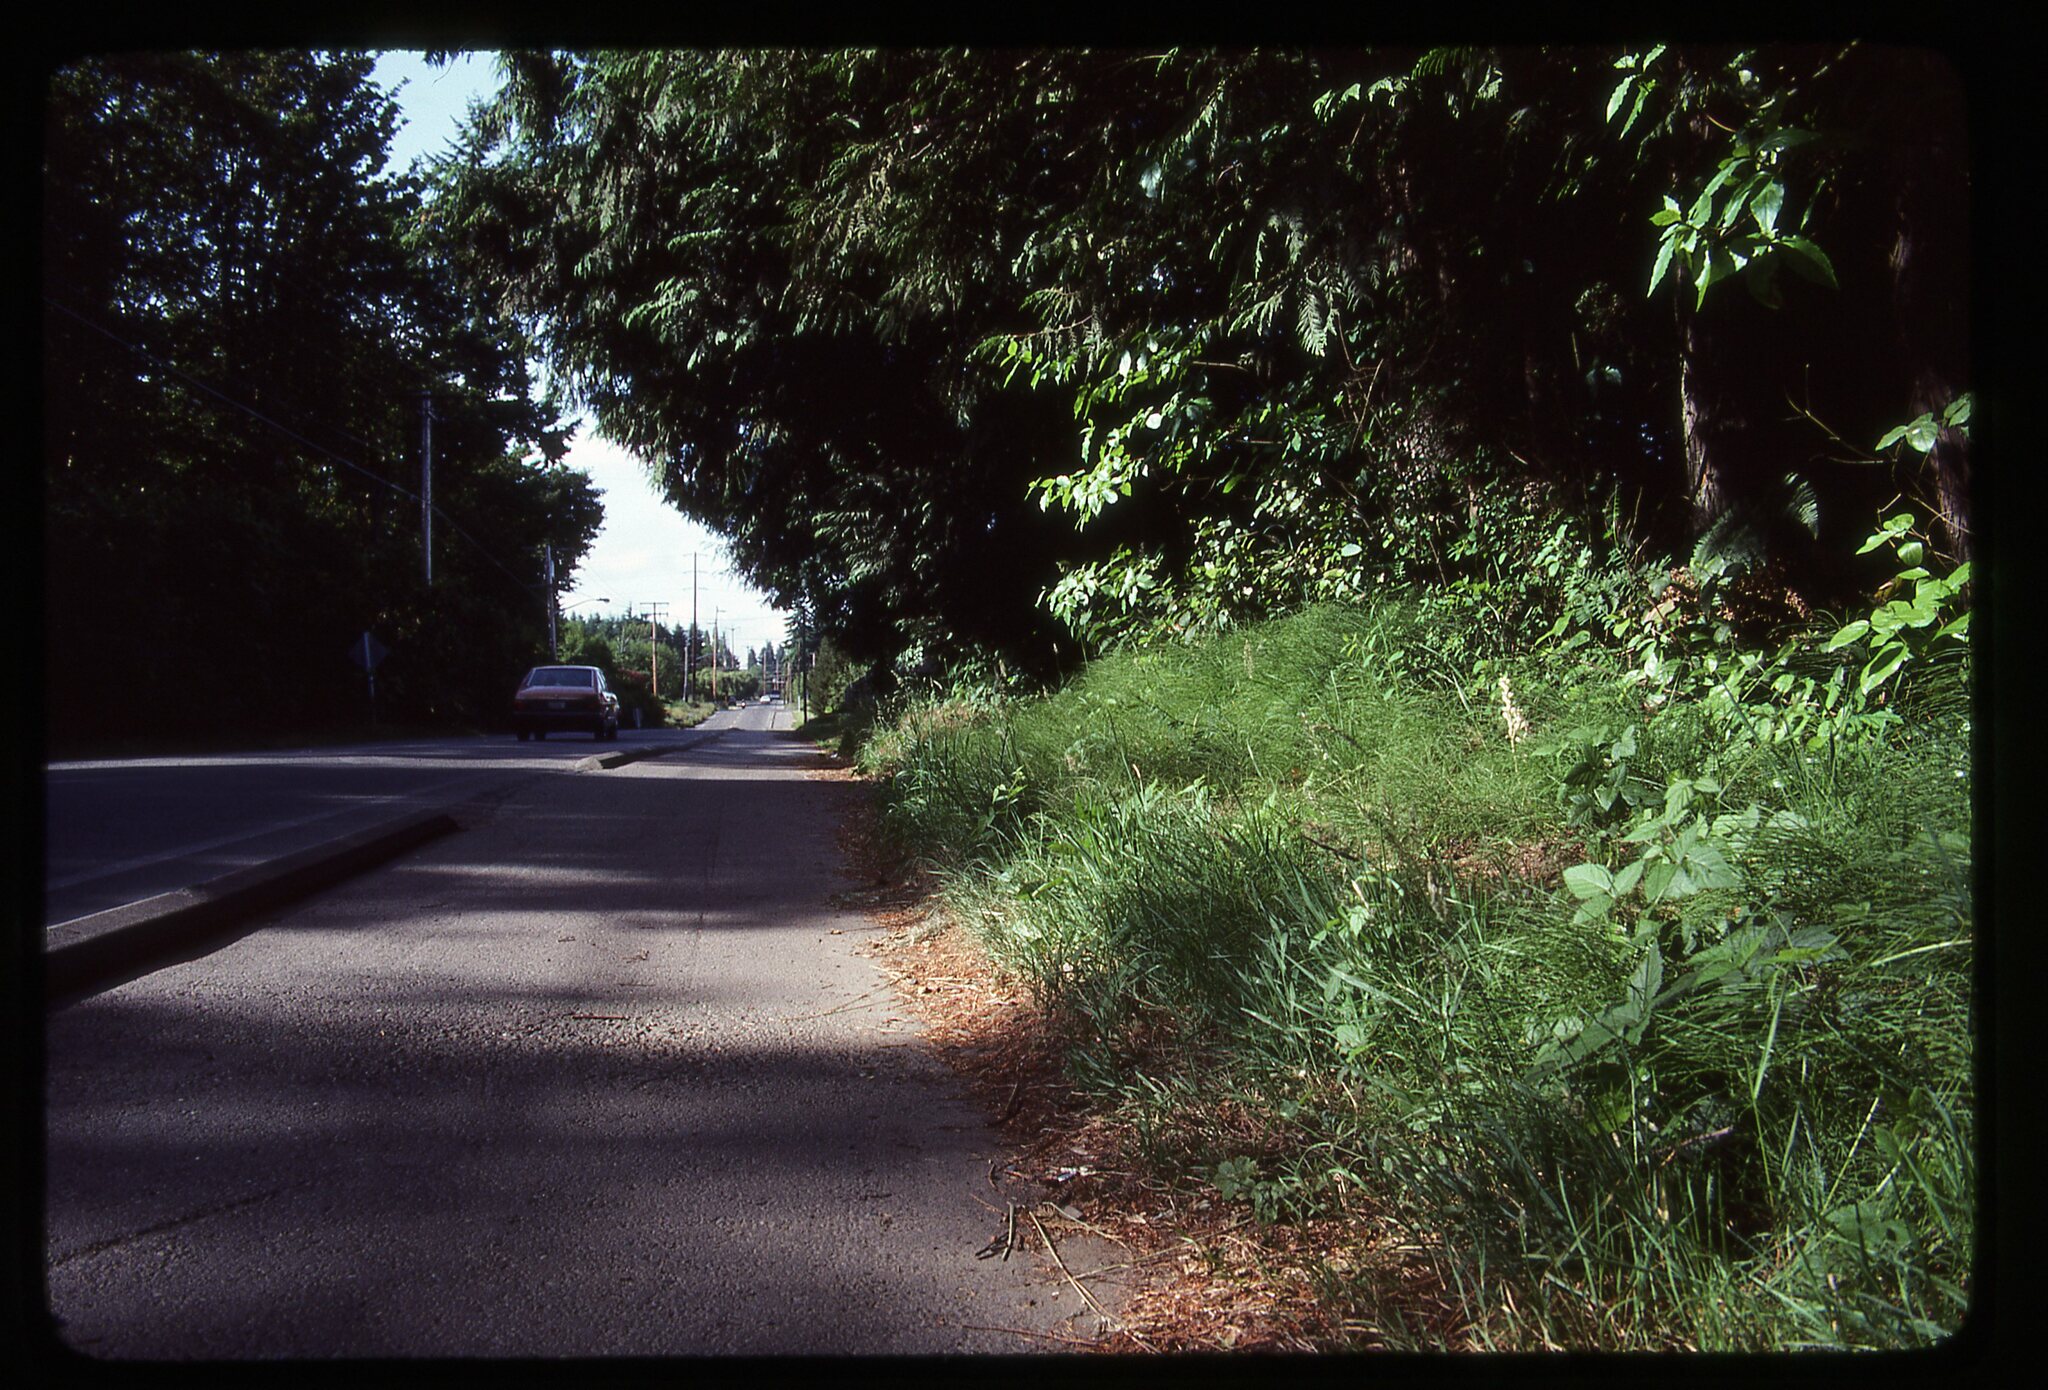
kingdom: Plantae
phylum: Tracheophyta
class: Liliopsida
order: Asparagales
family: Orchidaceae
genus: Cephalanthera
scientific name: Cephalanthera austiniae
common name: Phantom orchid
